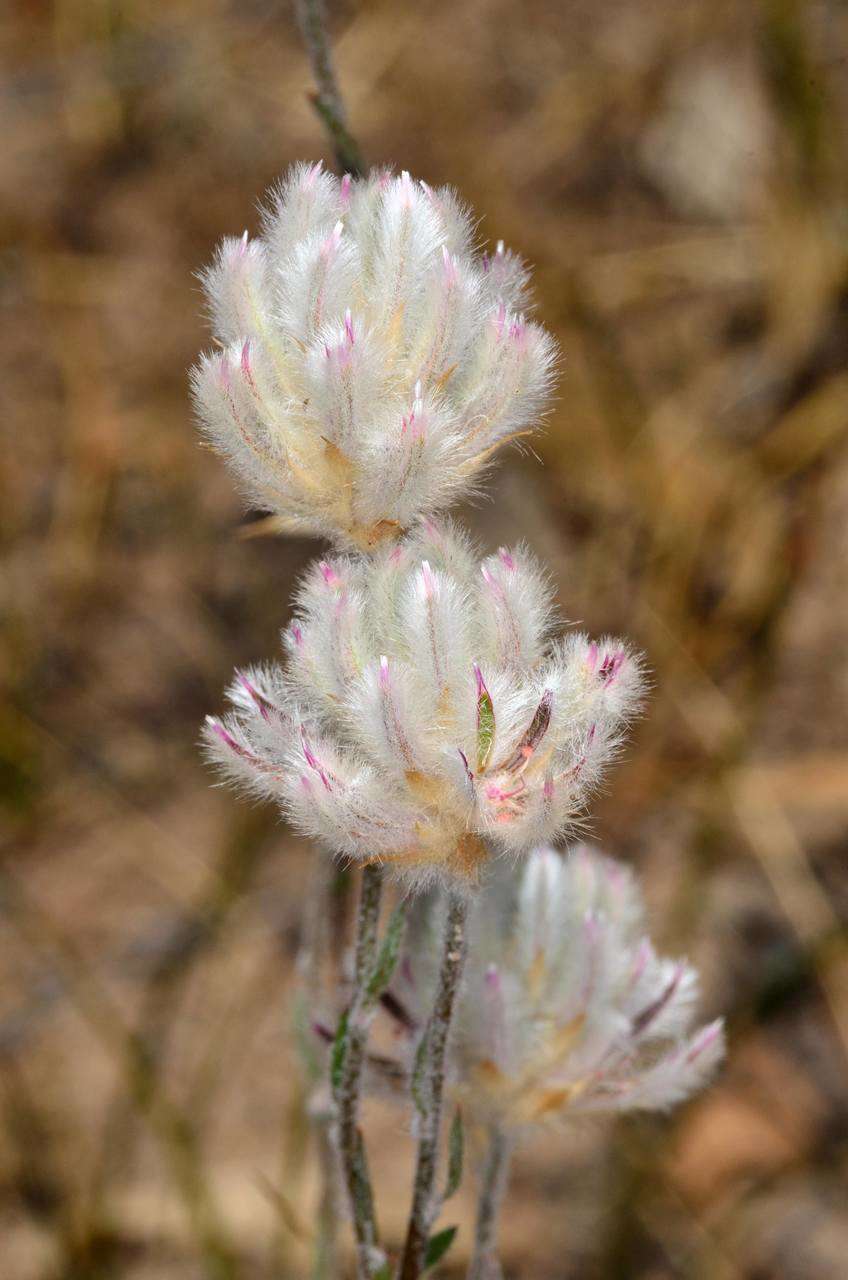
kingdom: Plantae
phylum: Tracheophyta
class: Magnoliopsida
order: Caryophyllales
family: Amaranthaceae
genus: Ptilotus
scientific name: Ptilotus erubescens
